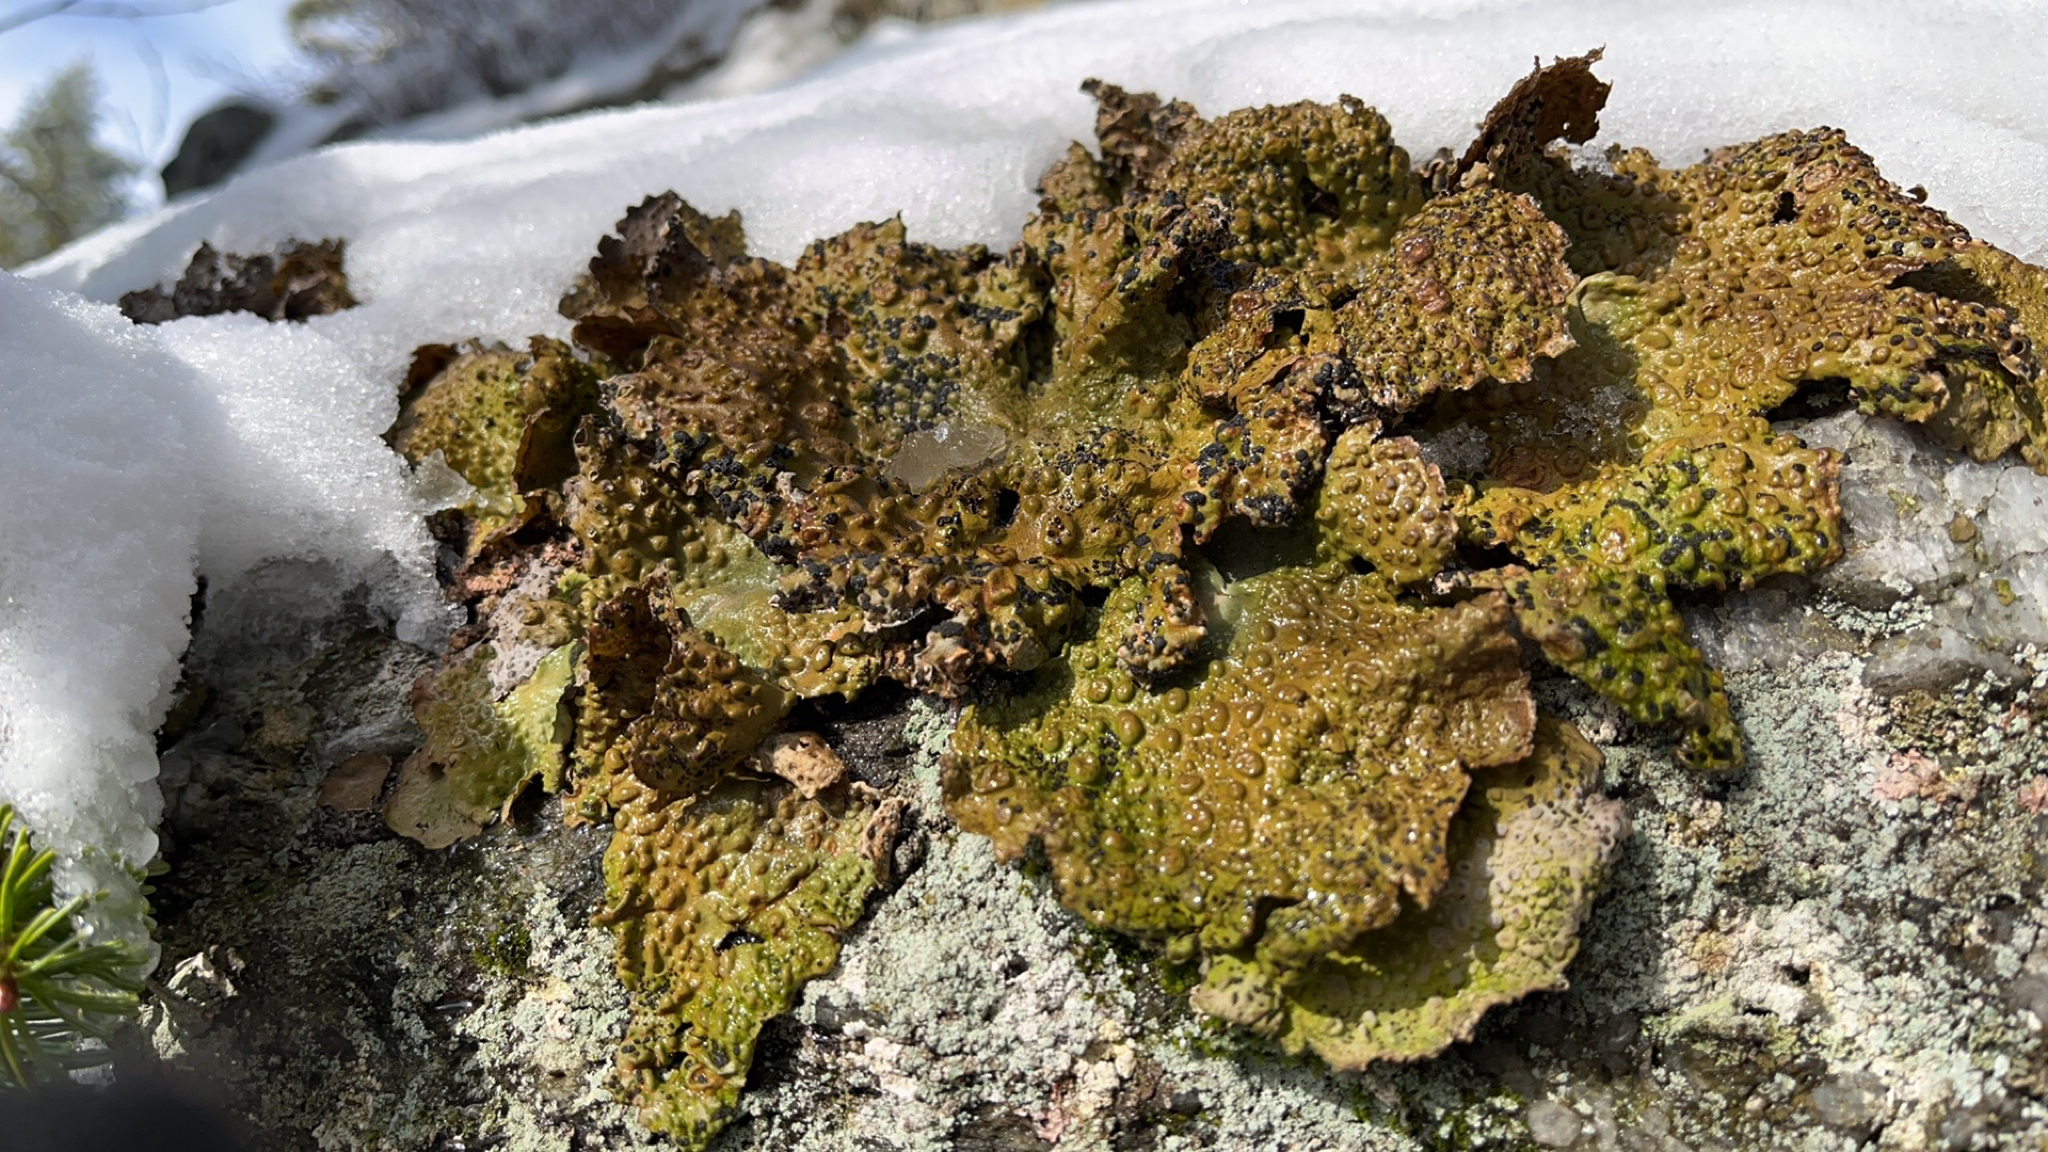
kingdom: Fungi
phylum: Ascomycota
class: Lecanoromycetes
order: Umbilicariales
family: Umbilicariaceae
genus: Lasallia
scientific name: Lasallia papulosa
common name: Common toadskin lichen
